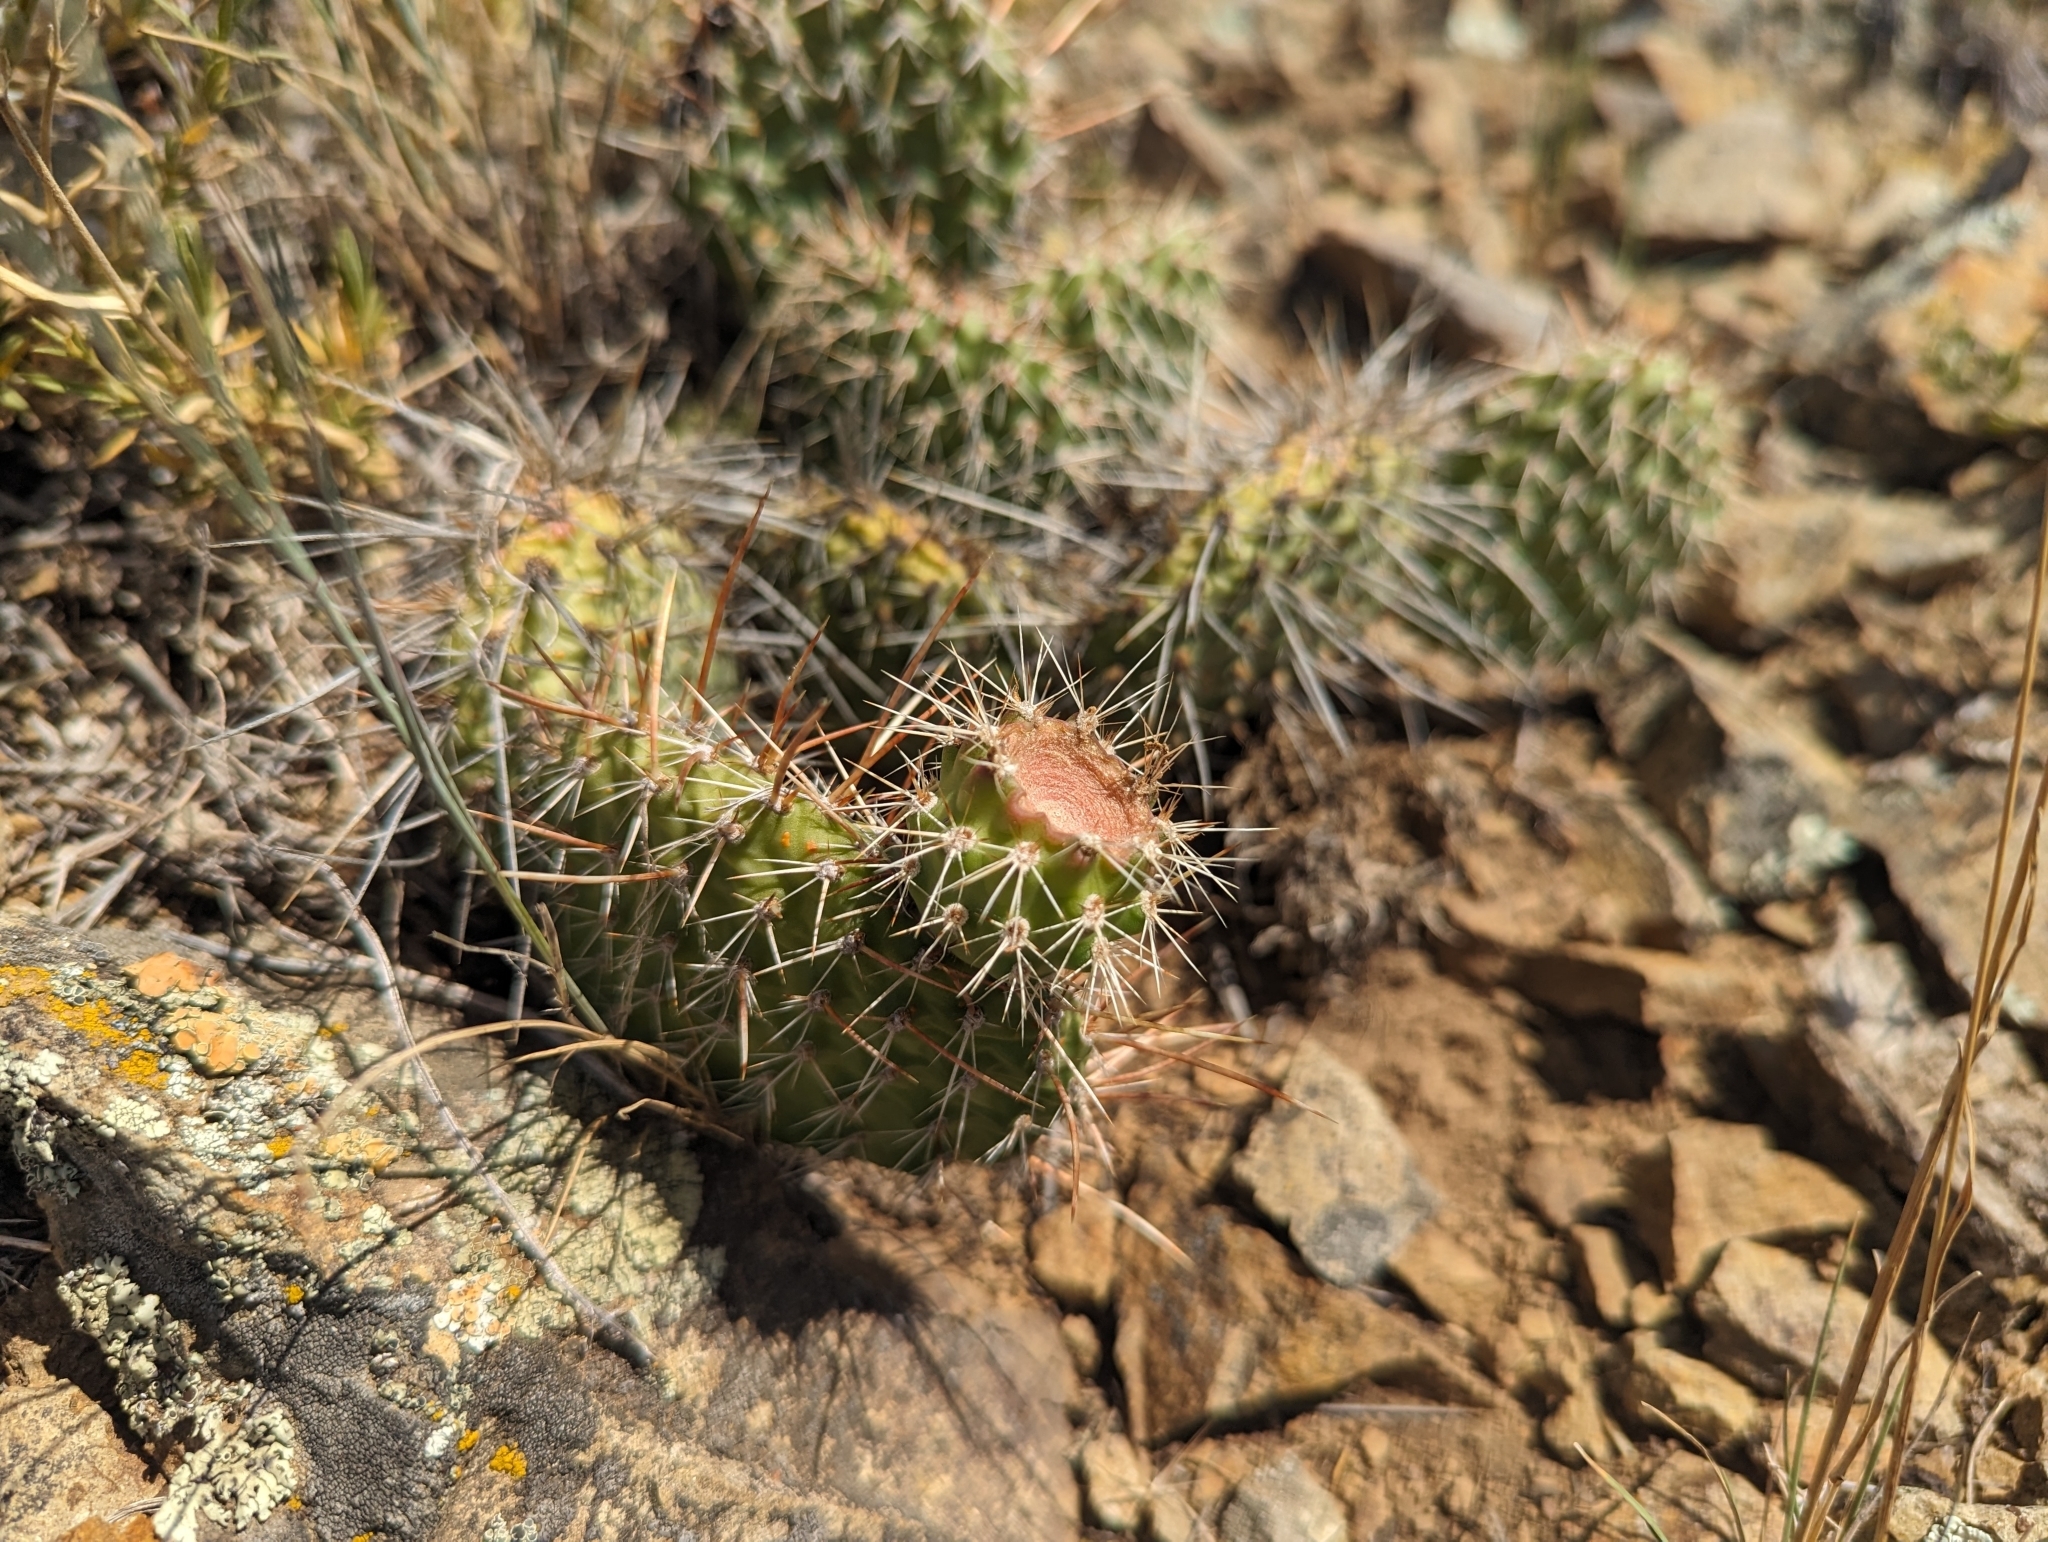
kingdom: Plantae
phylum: Tracheophyta
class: Magnoliopsida
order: Caryophyllales
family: Cactaceae
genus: Opuntia
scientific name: Opuntia polyacantha
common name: Plains prickly-pear
